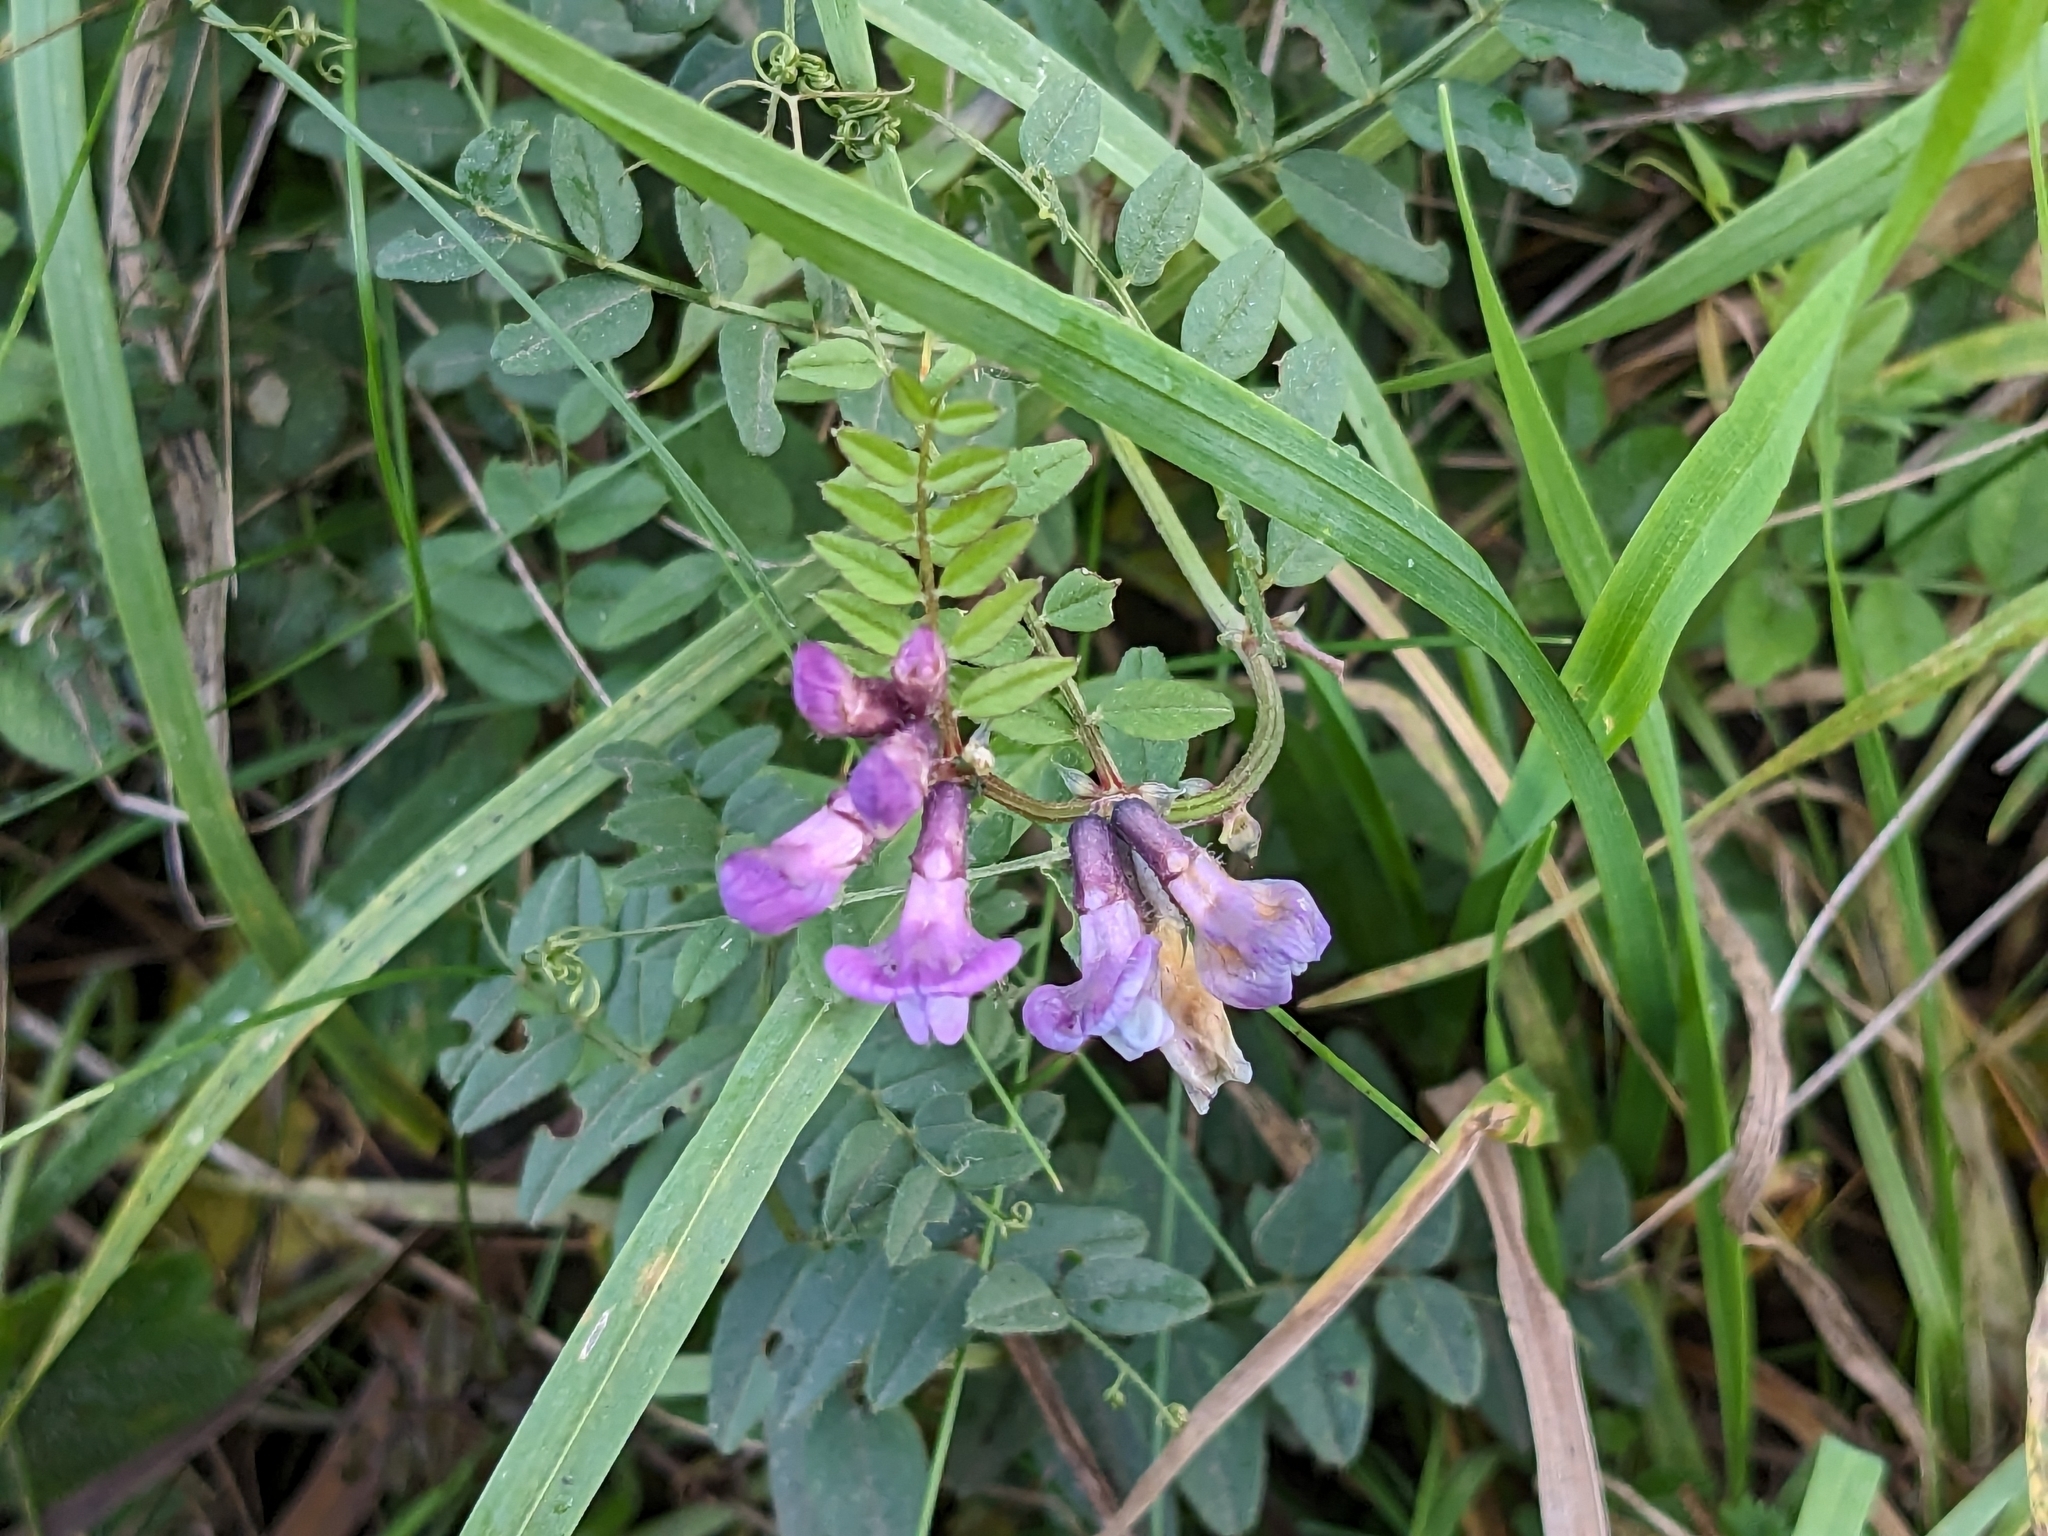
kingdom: Plantae
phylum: Tracheophyta
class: Magnoliopsida
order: Fabales
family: Fabaceae
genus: Vicia
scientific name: Vicia sepium
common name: Bush vetch
